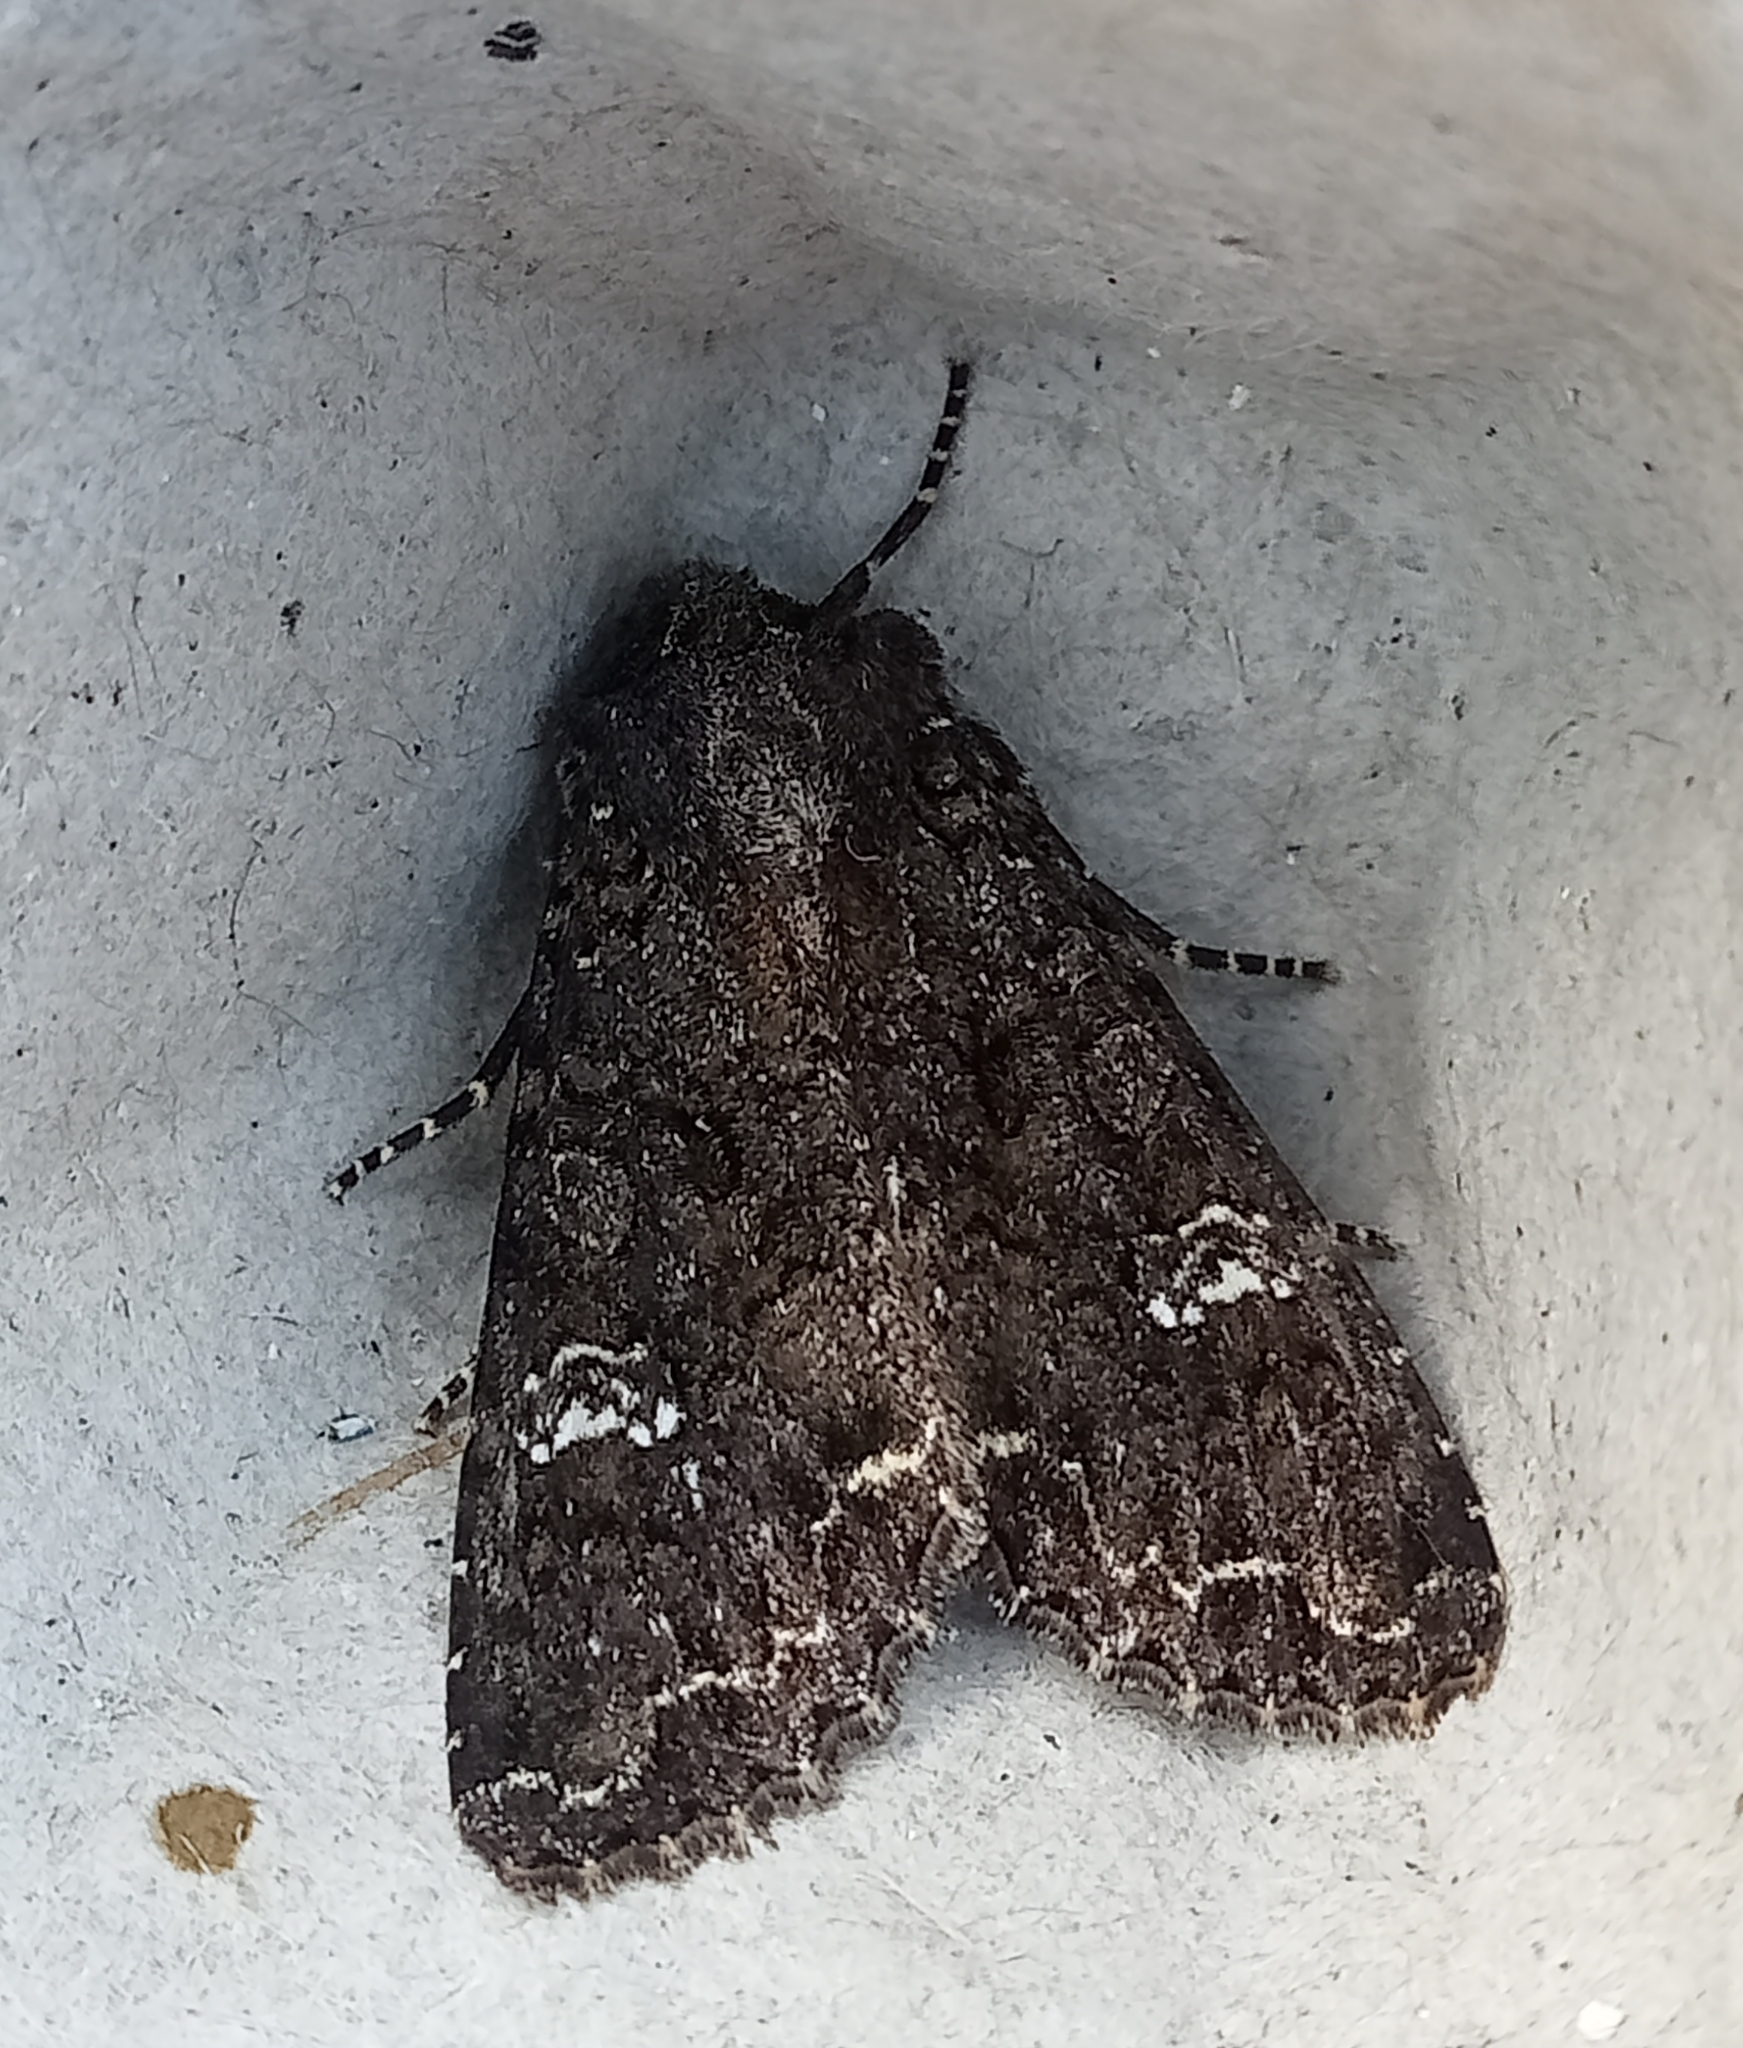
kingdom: Animalia
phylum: Arthropoda
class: Insecta
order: Lepidoptera
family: Noctuidae
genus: Mamestra
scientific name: Mamestra brassicae
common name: Cabbage moth
